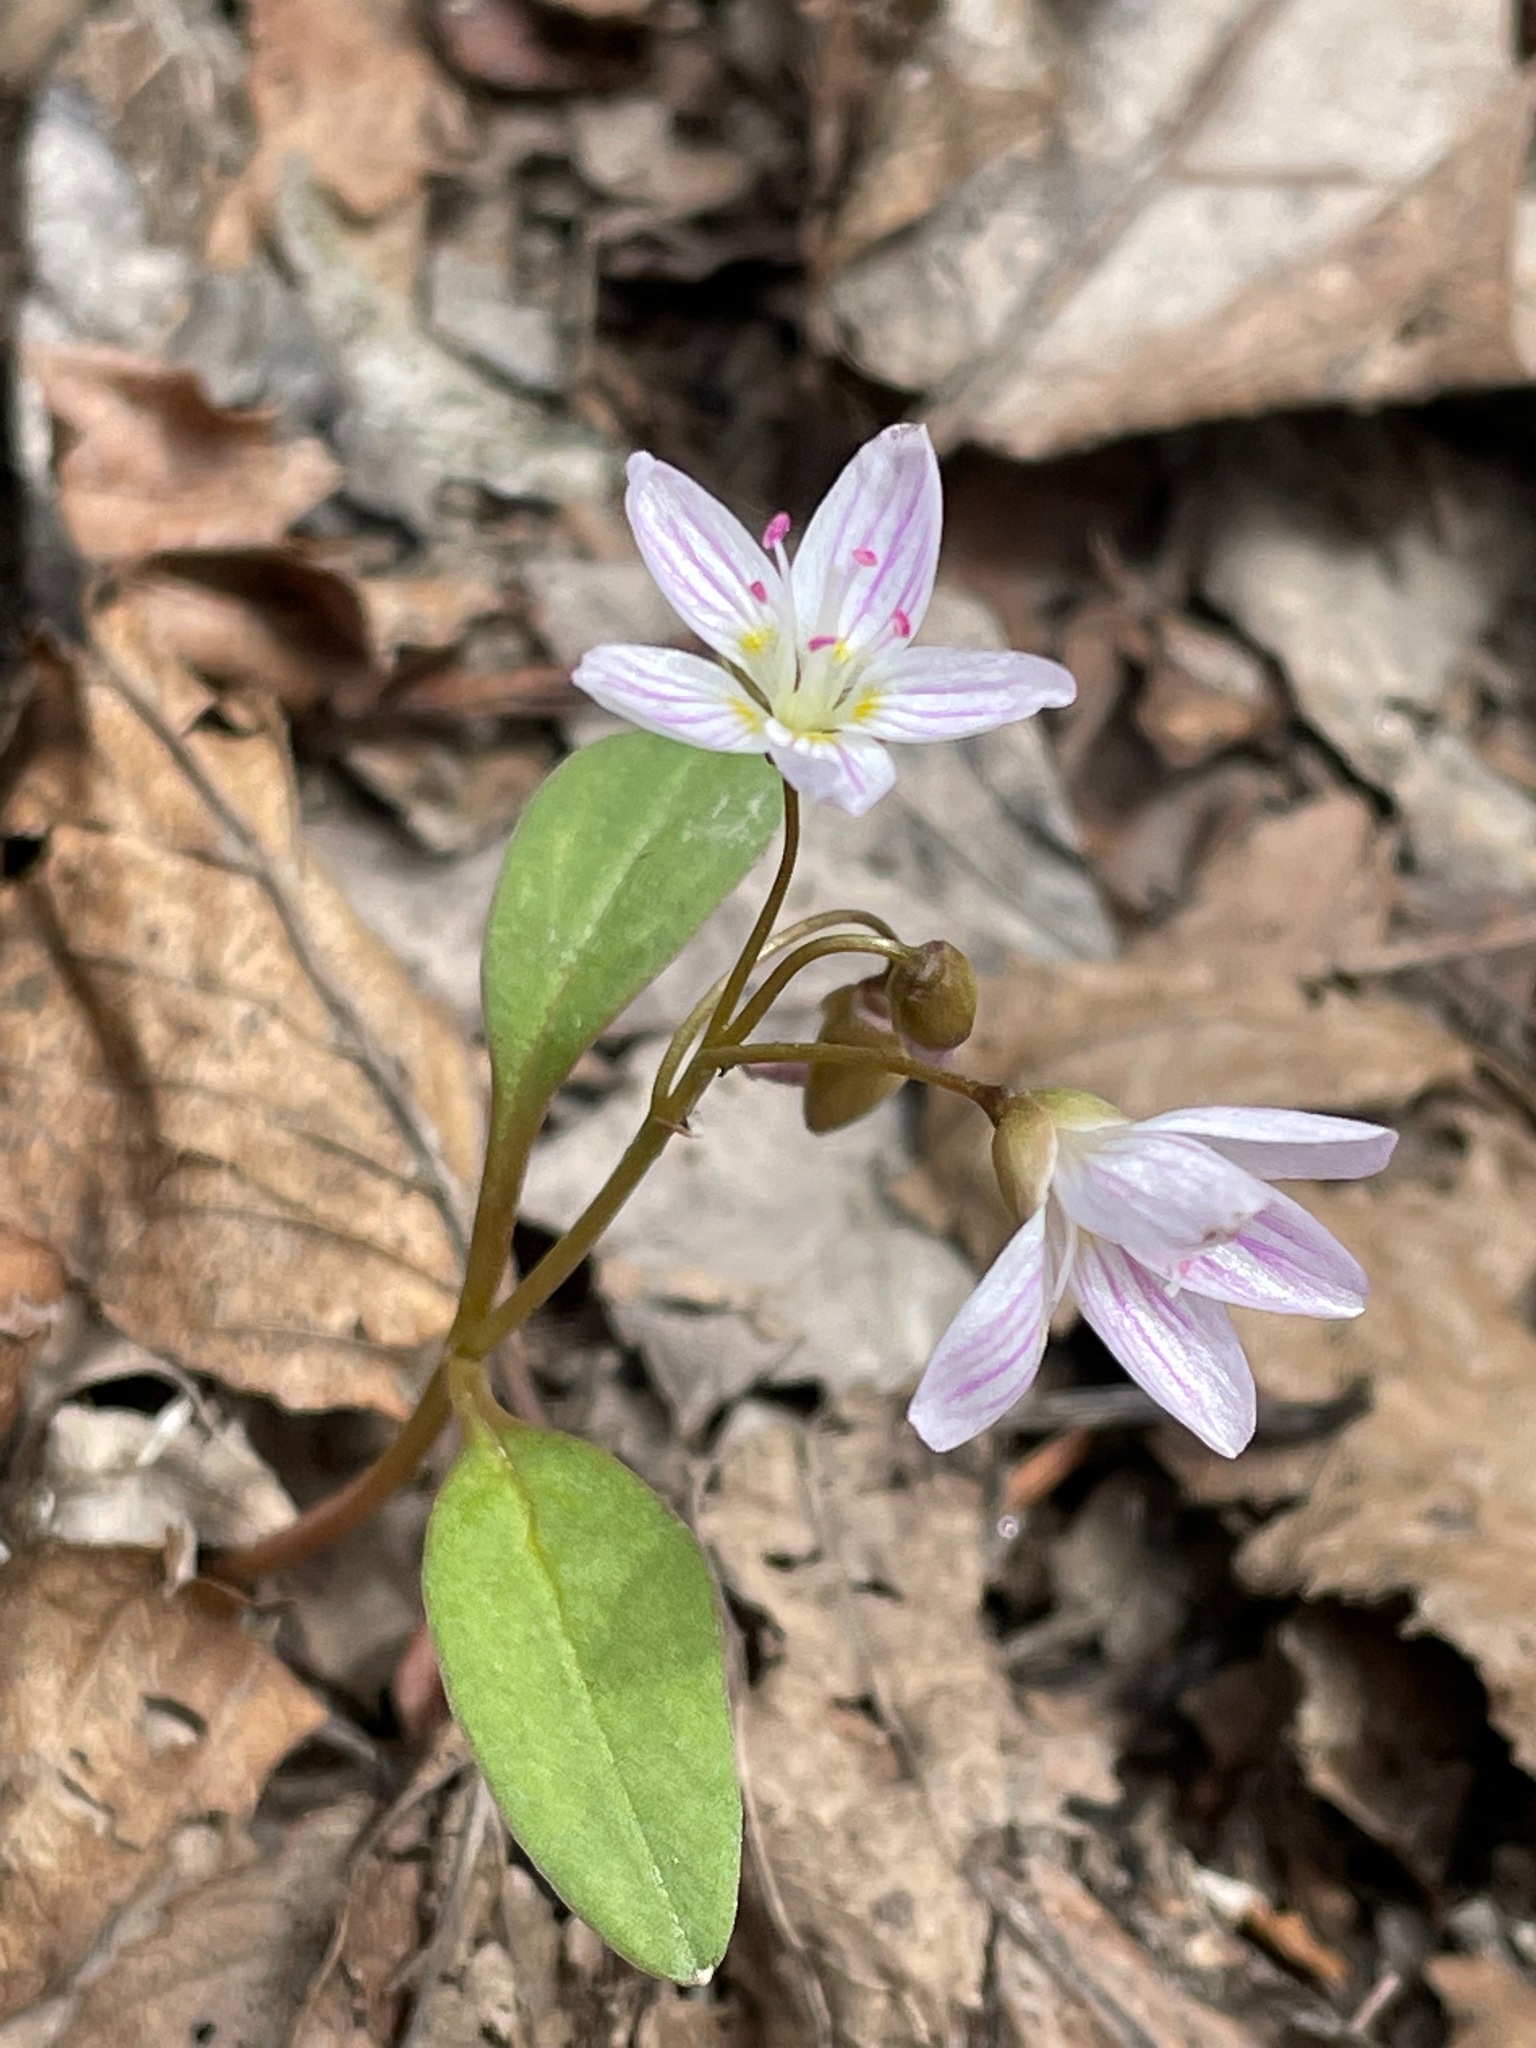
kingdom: Plantae
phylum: Tracheophyta
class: Magnoliopsida
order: Caryophyllales
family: Montiaceae
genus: Claytonia
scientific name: Claytonia caroliniana
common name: Carolina spring beauty
